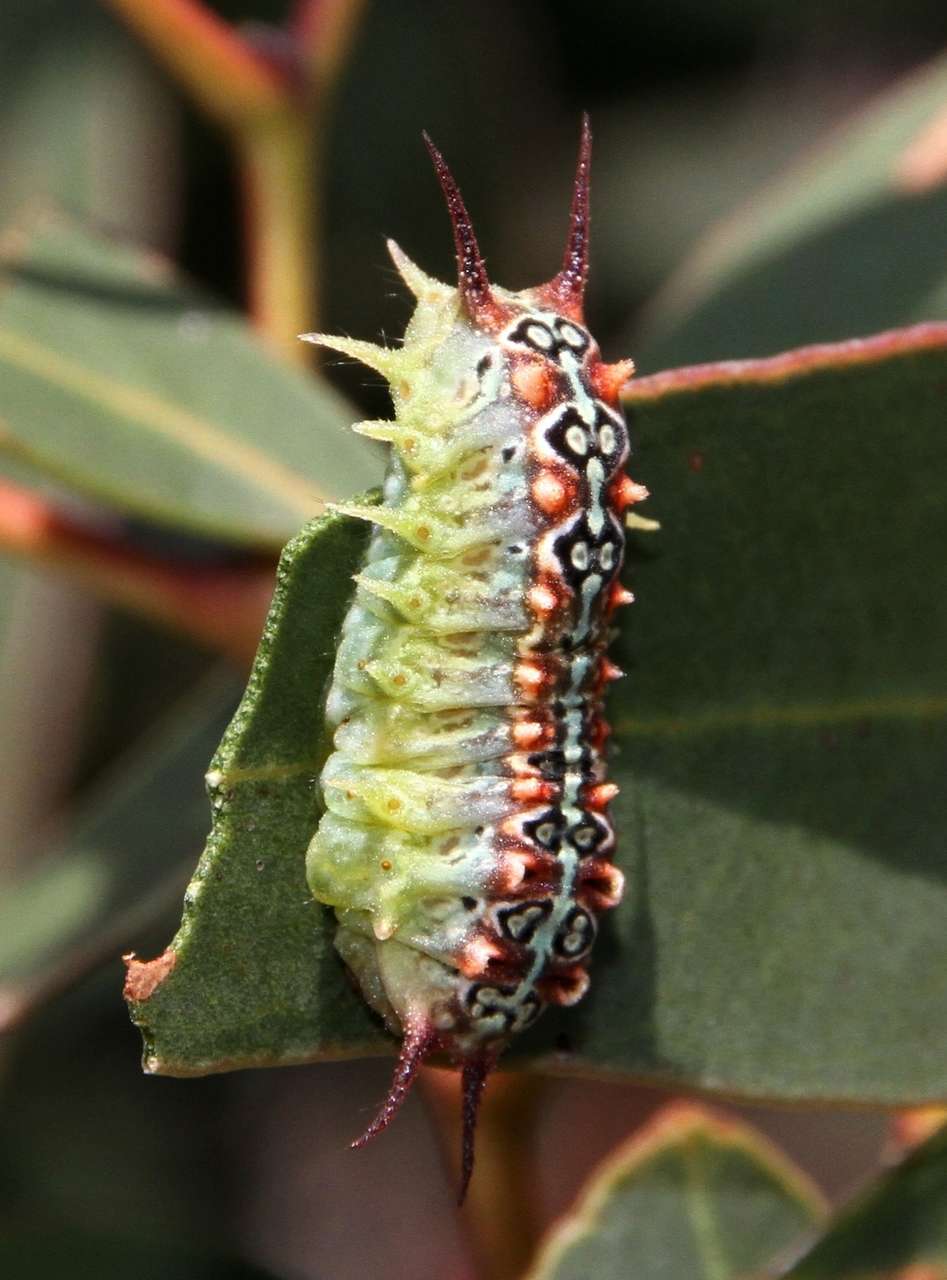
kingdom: Animalia
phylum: Arthropoda
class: Insecta
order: Lepidoptera
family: Limacodidae
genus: Doratifera
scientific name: Doratifera quadriguttata
